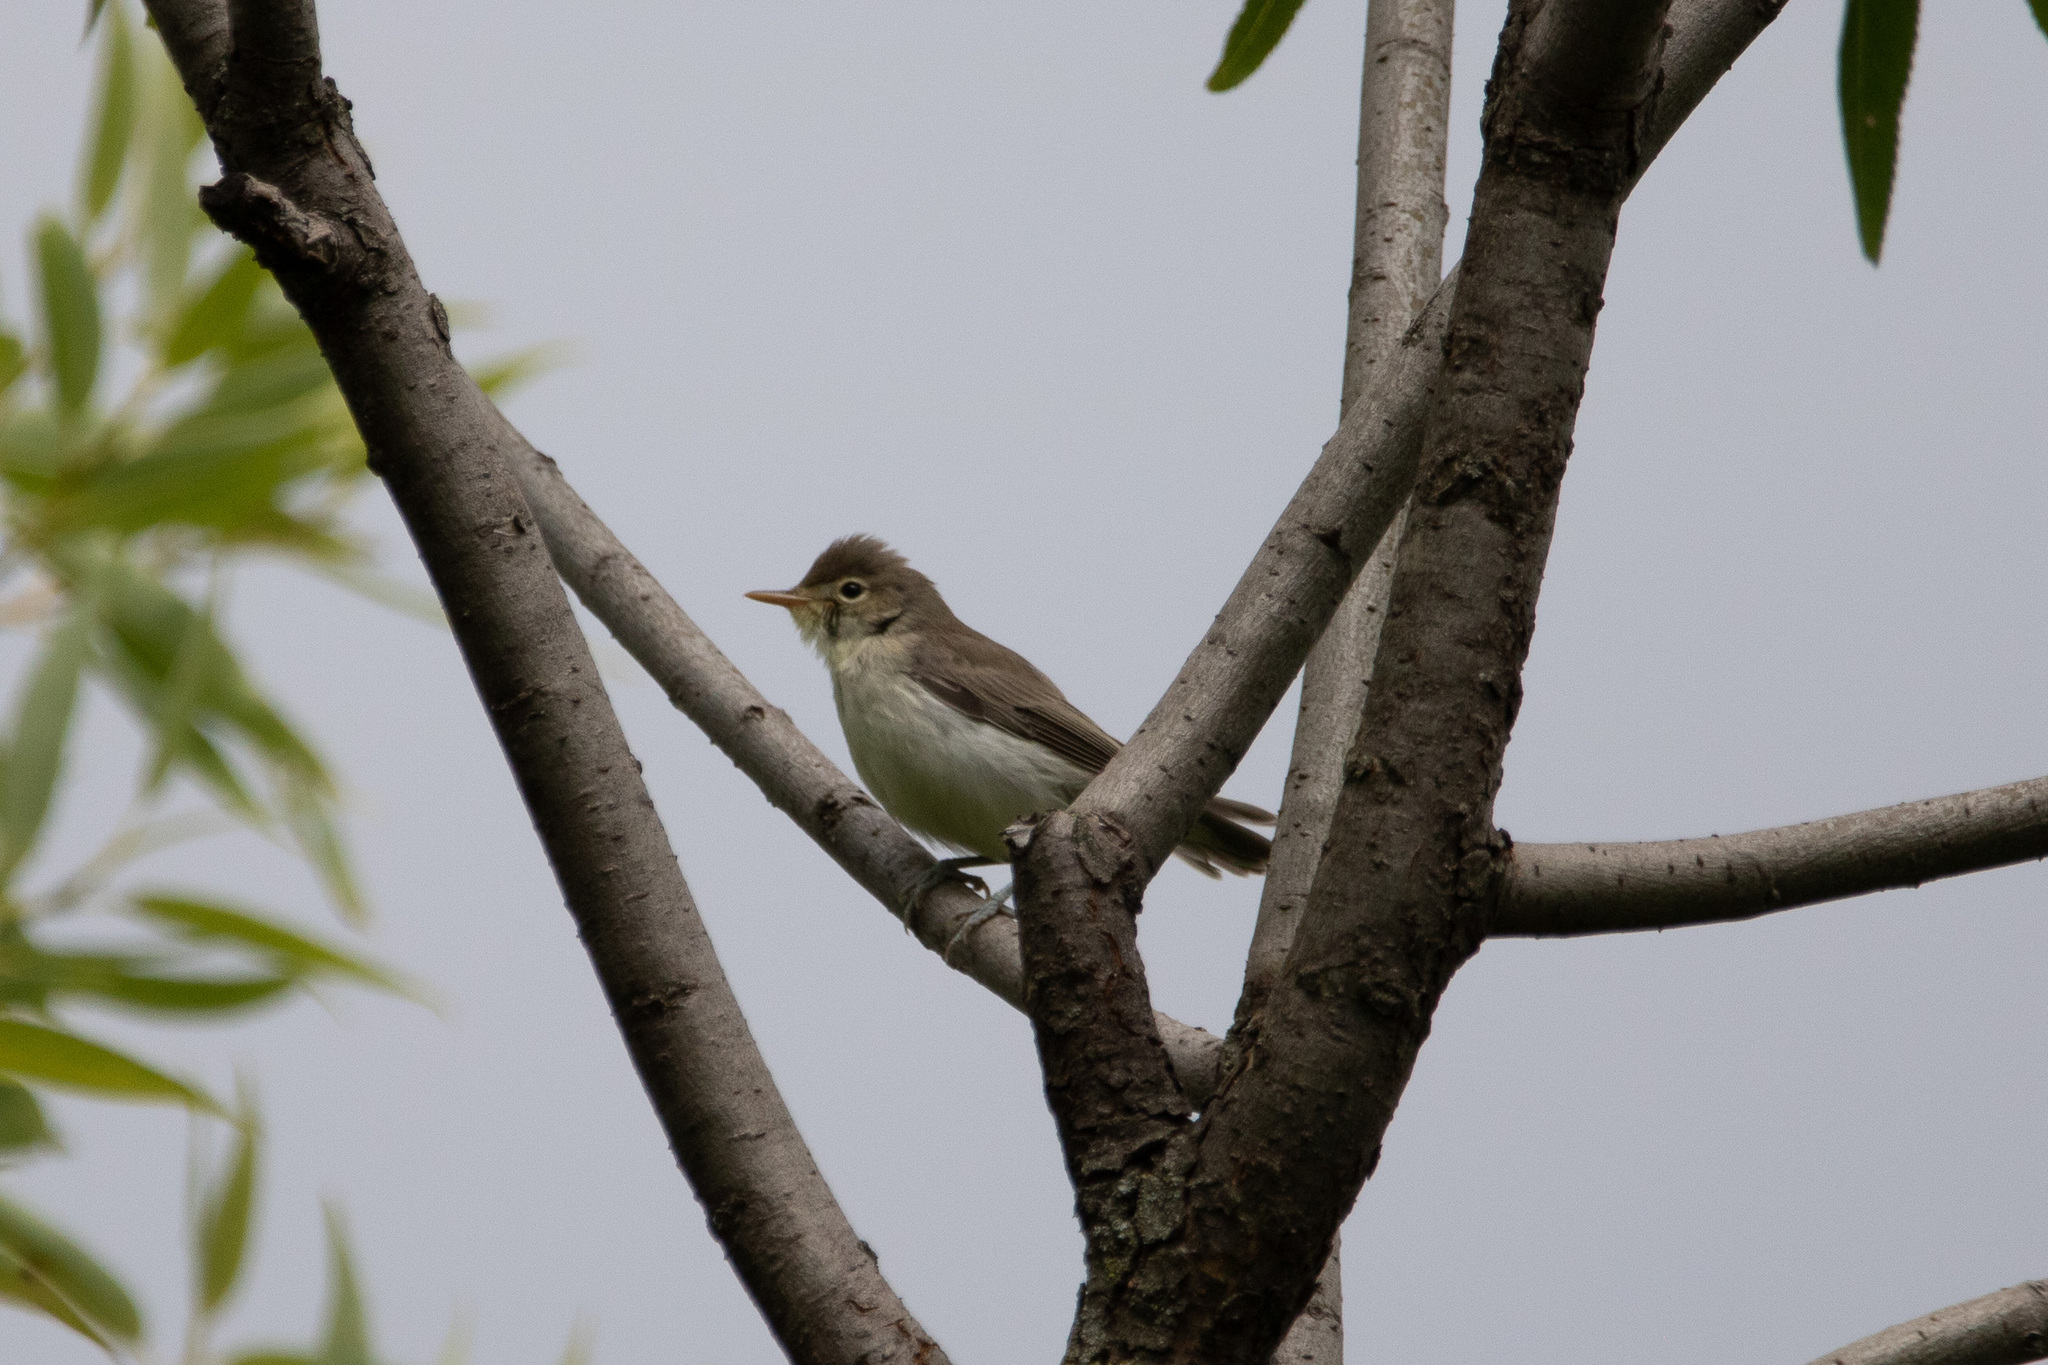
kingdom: Animalia
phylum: Chordata
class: Aves
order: Passeriformes
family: Acrocephalidae
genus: Hippolais
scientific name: Hippolais icterina
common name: Icterine warbler
